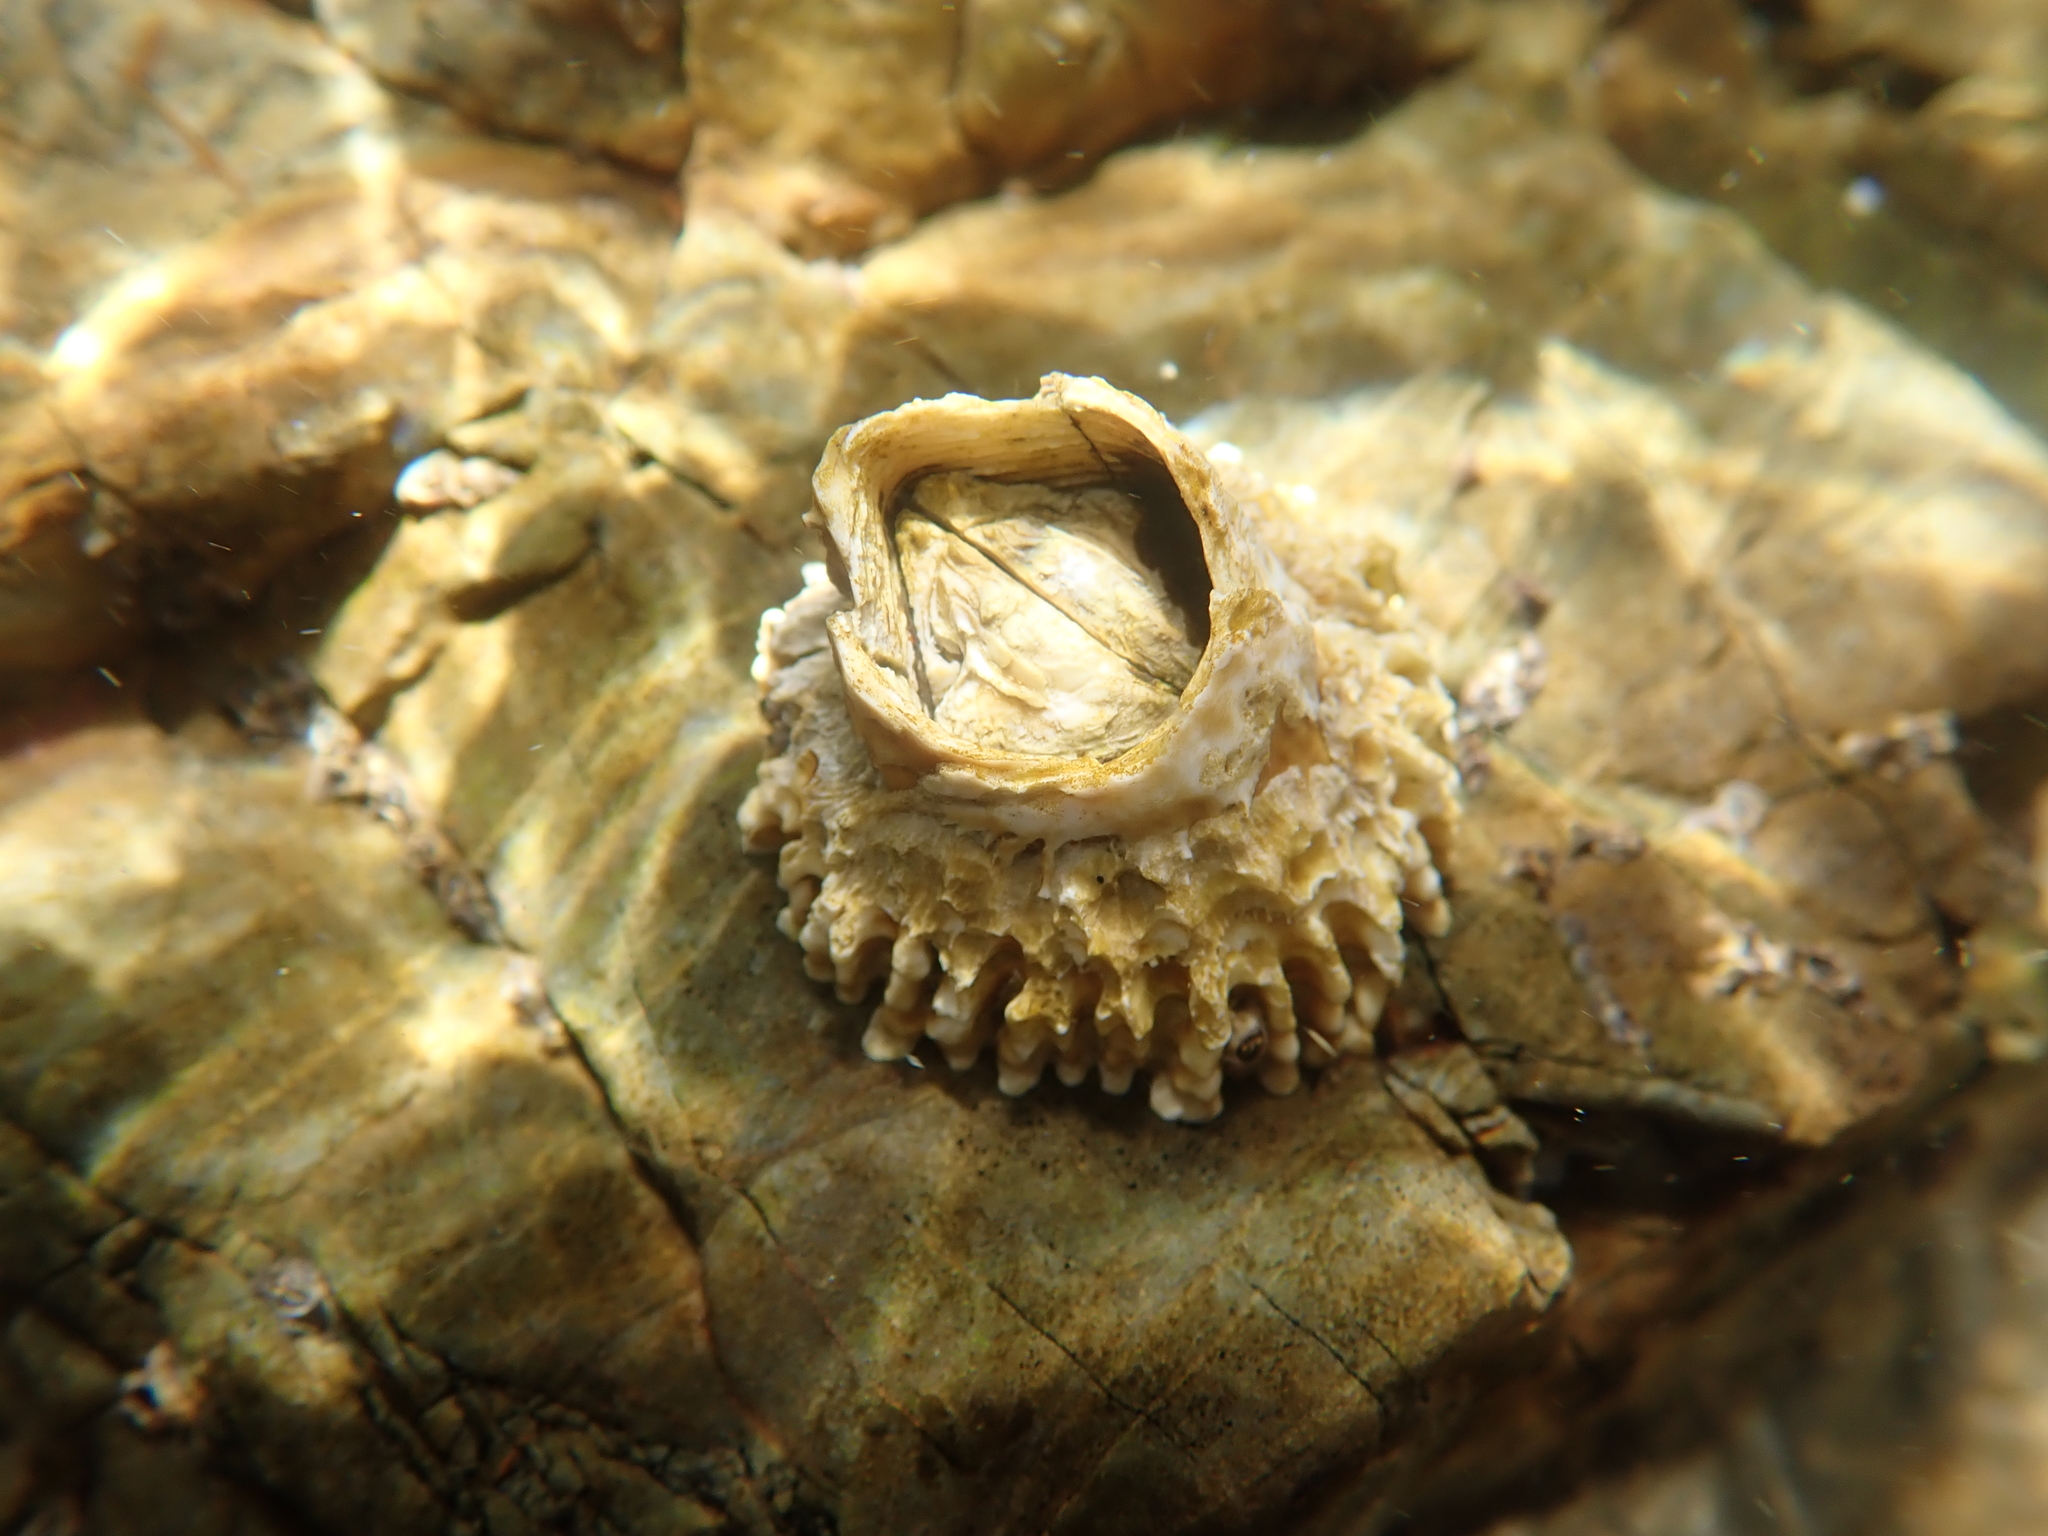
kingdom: Animalia
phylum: Arthropoda
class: Maxillopoda
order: Sessilia
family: Tetraclitidae
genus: Epopella
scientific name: Epopella plicata
